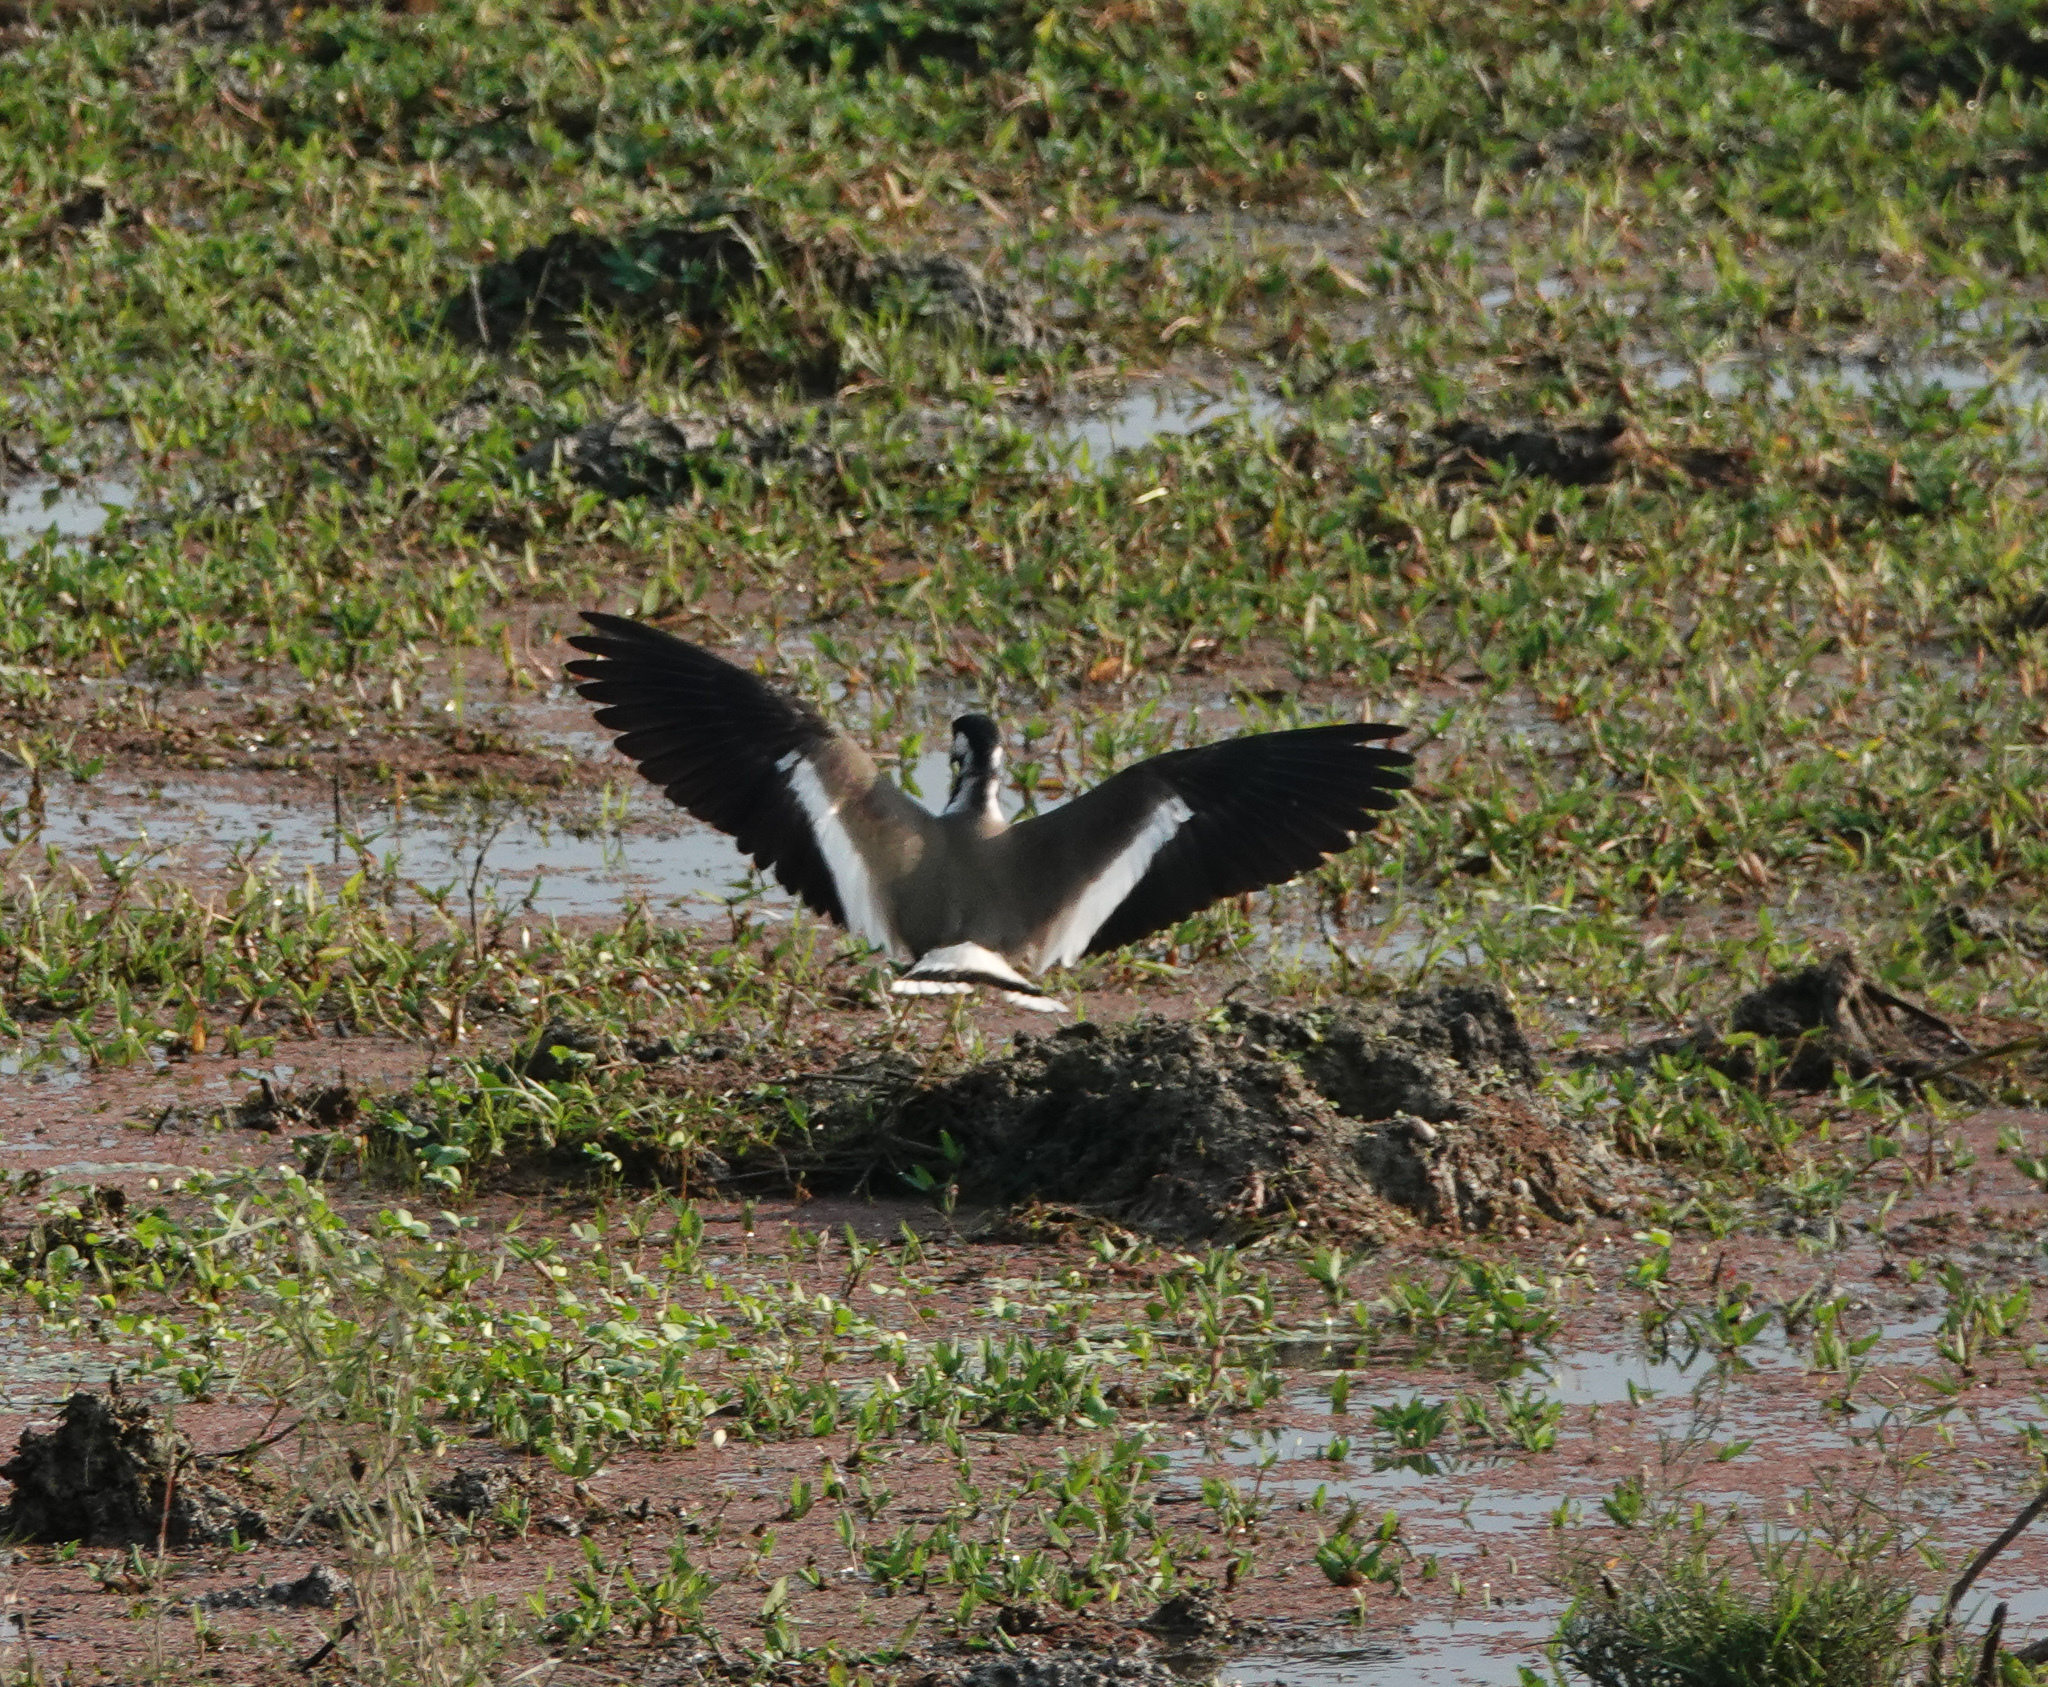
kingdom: Animalia
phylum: Chordata
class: Aves
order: Charadriiformes
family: Charadriidae
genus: Vanellus
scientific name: Vanellus indicus
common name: Red-wattled lapwing
